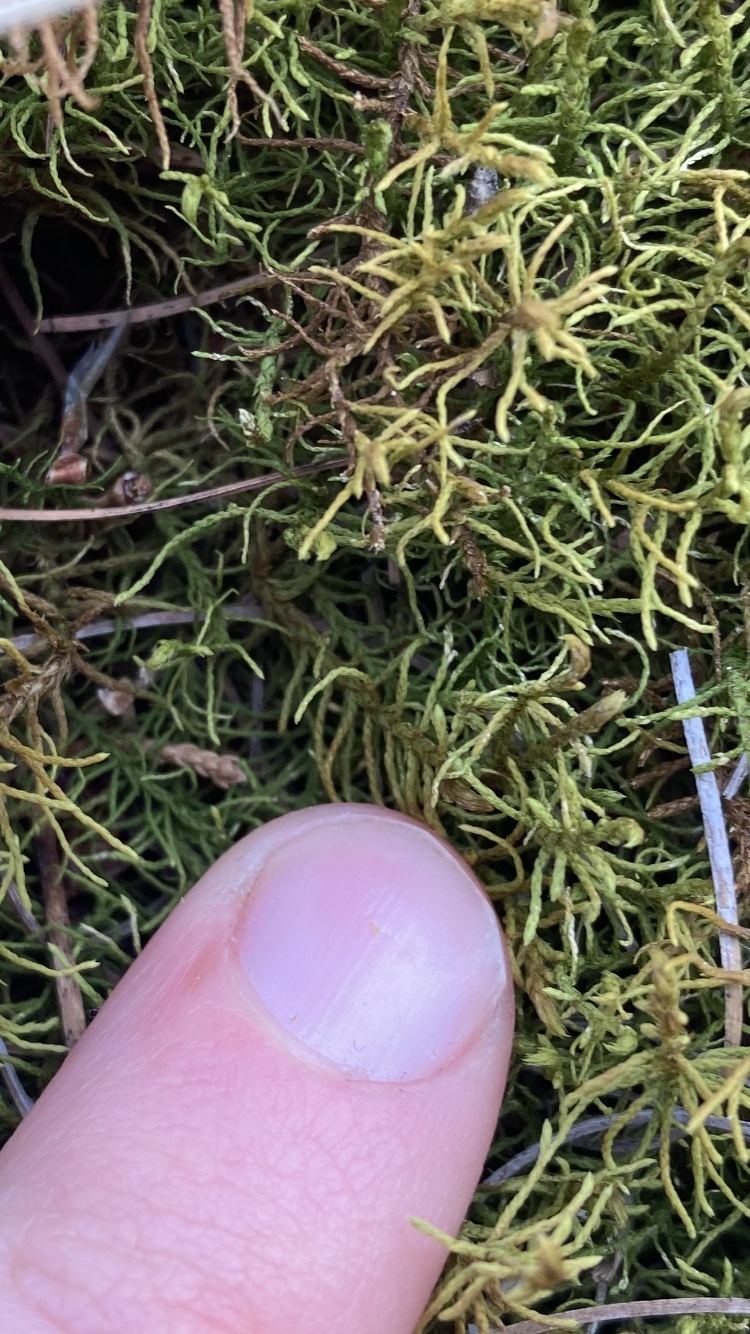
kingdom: Plantae
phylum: Bryophyta
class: Bryopsida
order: Hypnales
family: Thuidiaceae
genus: Abietinella
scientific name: Abietinella abietina
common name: Wiry fern moss
